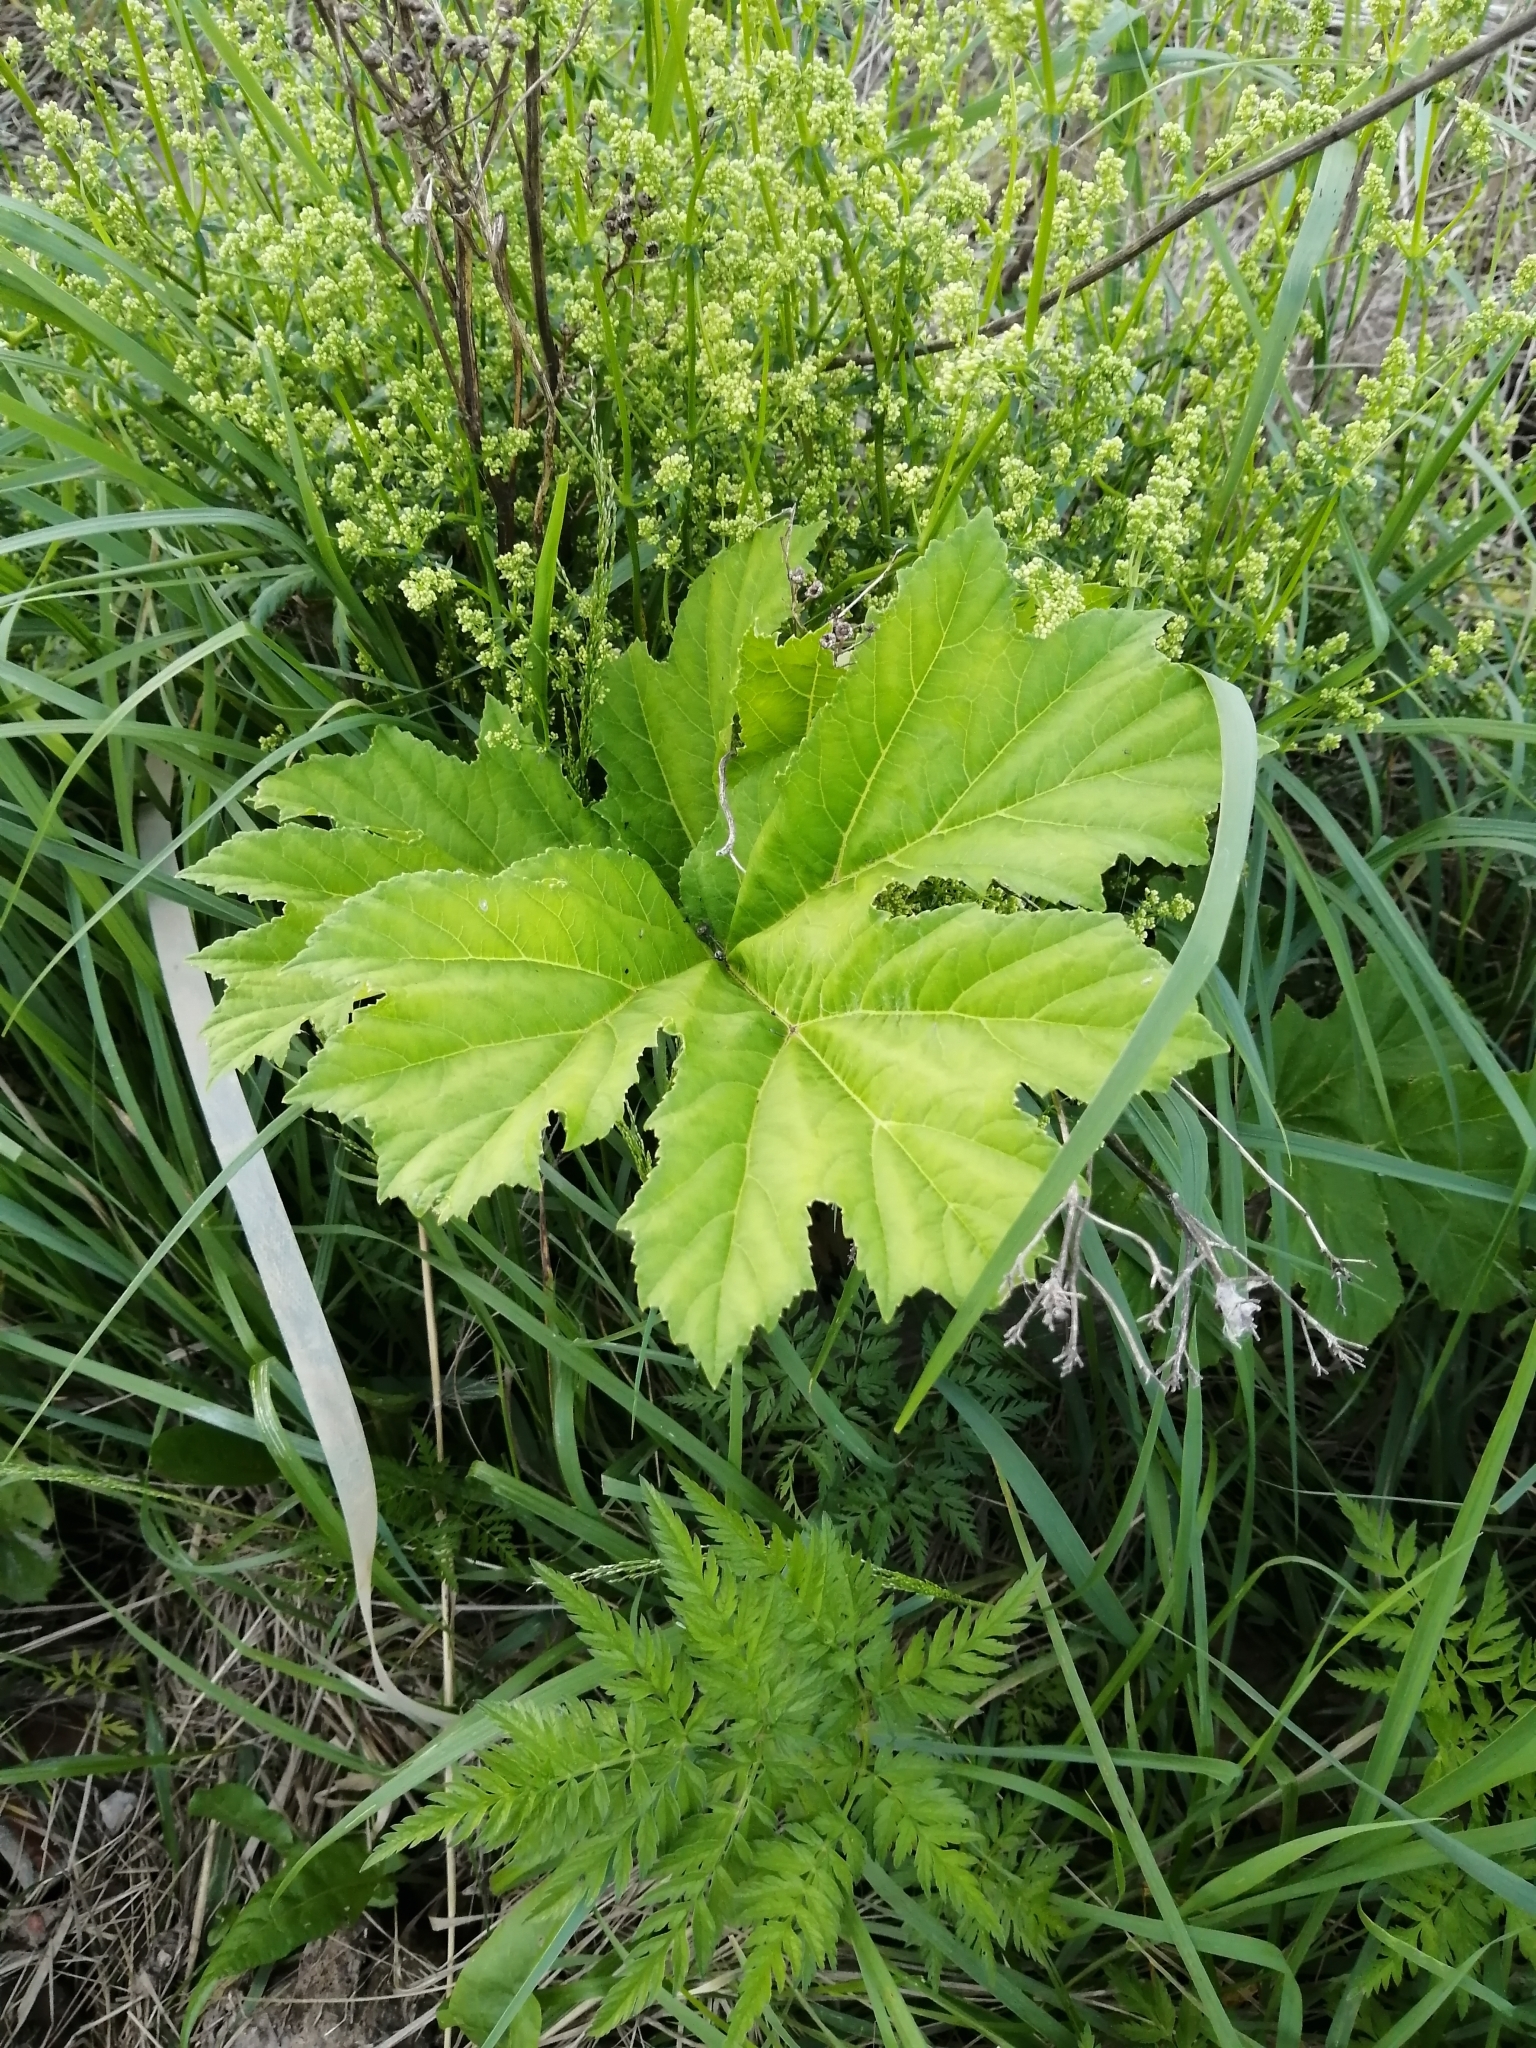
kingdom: Plantae
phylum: Tracheophyta
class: Magnoliopsida
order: Apiales
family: Apiaceae
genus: Heracleum
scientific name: Heracleum sosnowskyi
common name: Sosnowsky's hogweed
